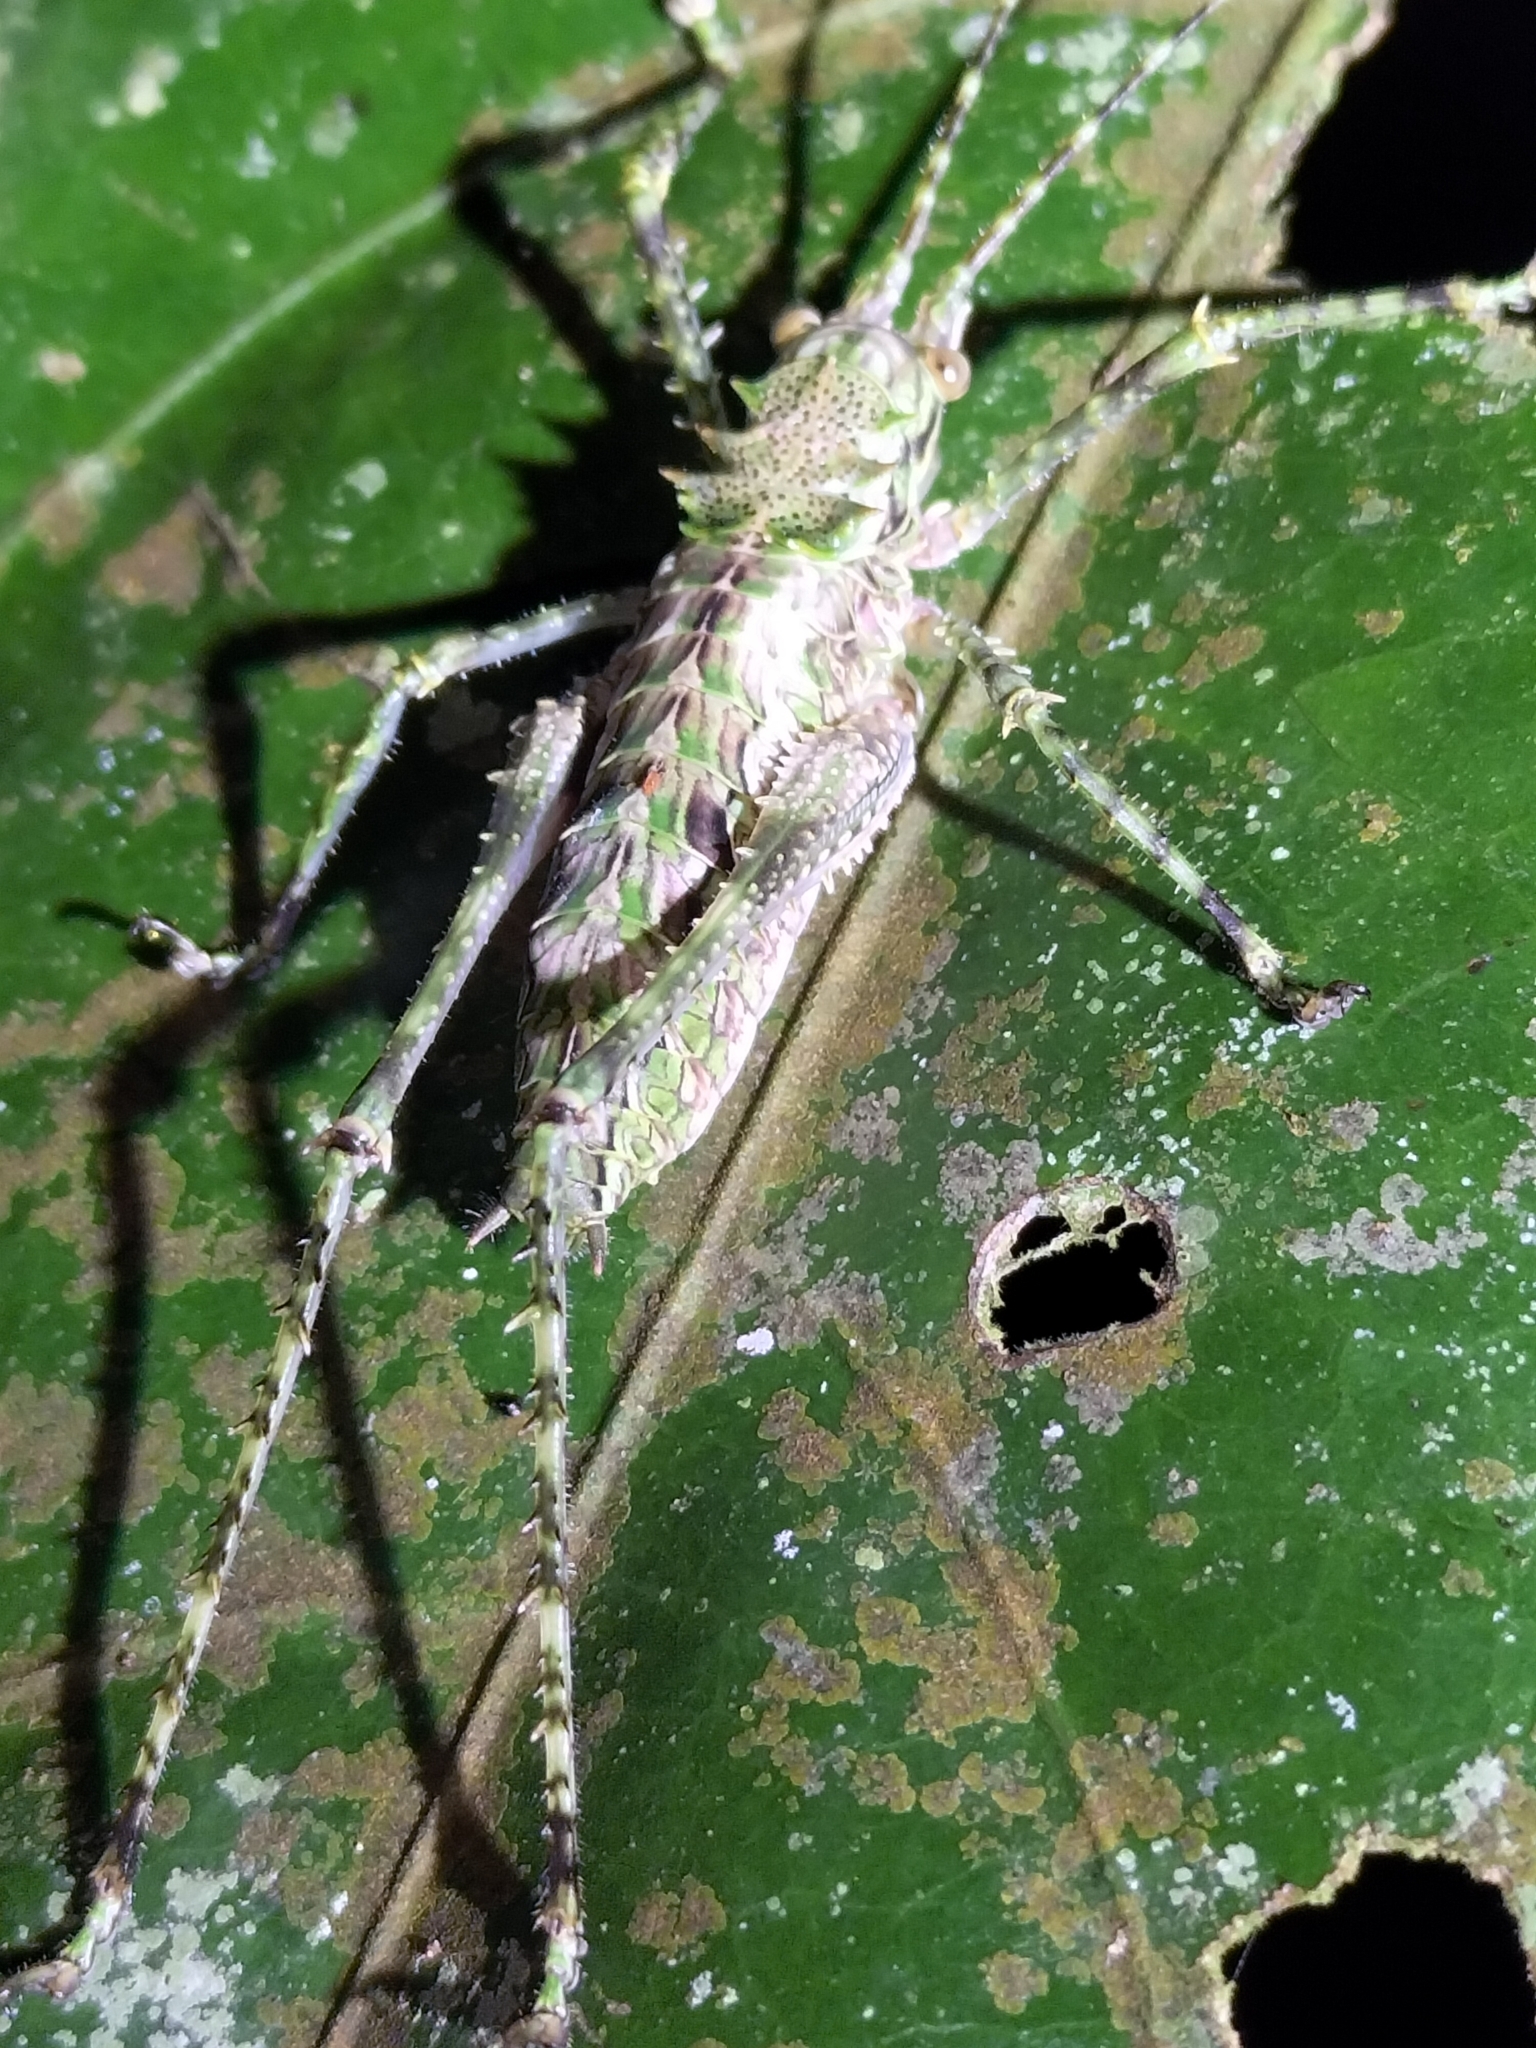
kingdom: Animalia
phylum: Arthropoda
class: Insecta
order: Orthoptera
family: Tettigoniidae
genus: Phricta
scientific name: Phricta spinosa
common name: Giant spiny forest katydid
